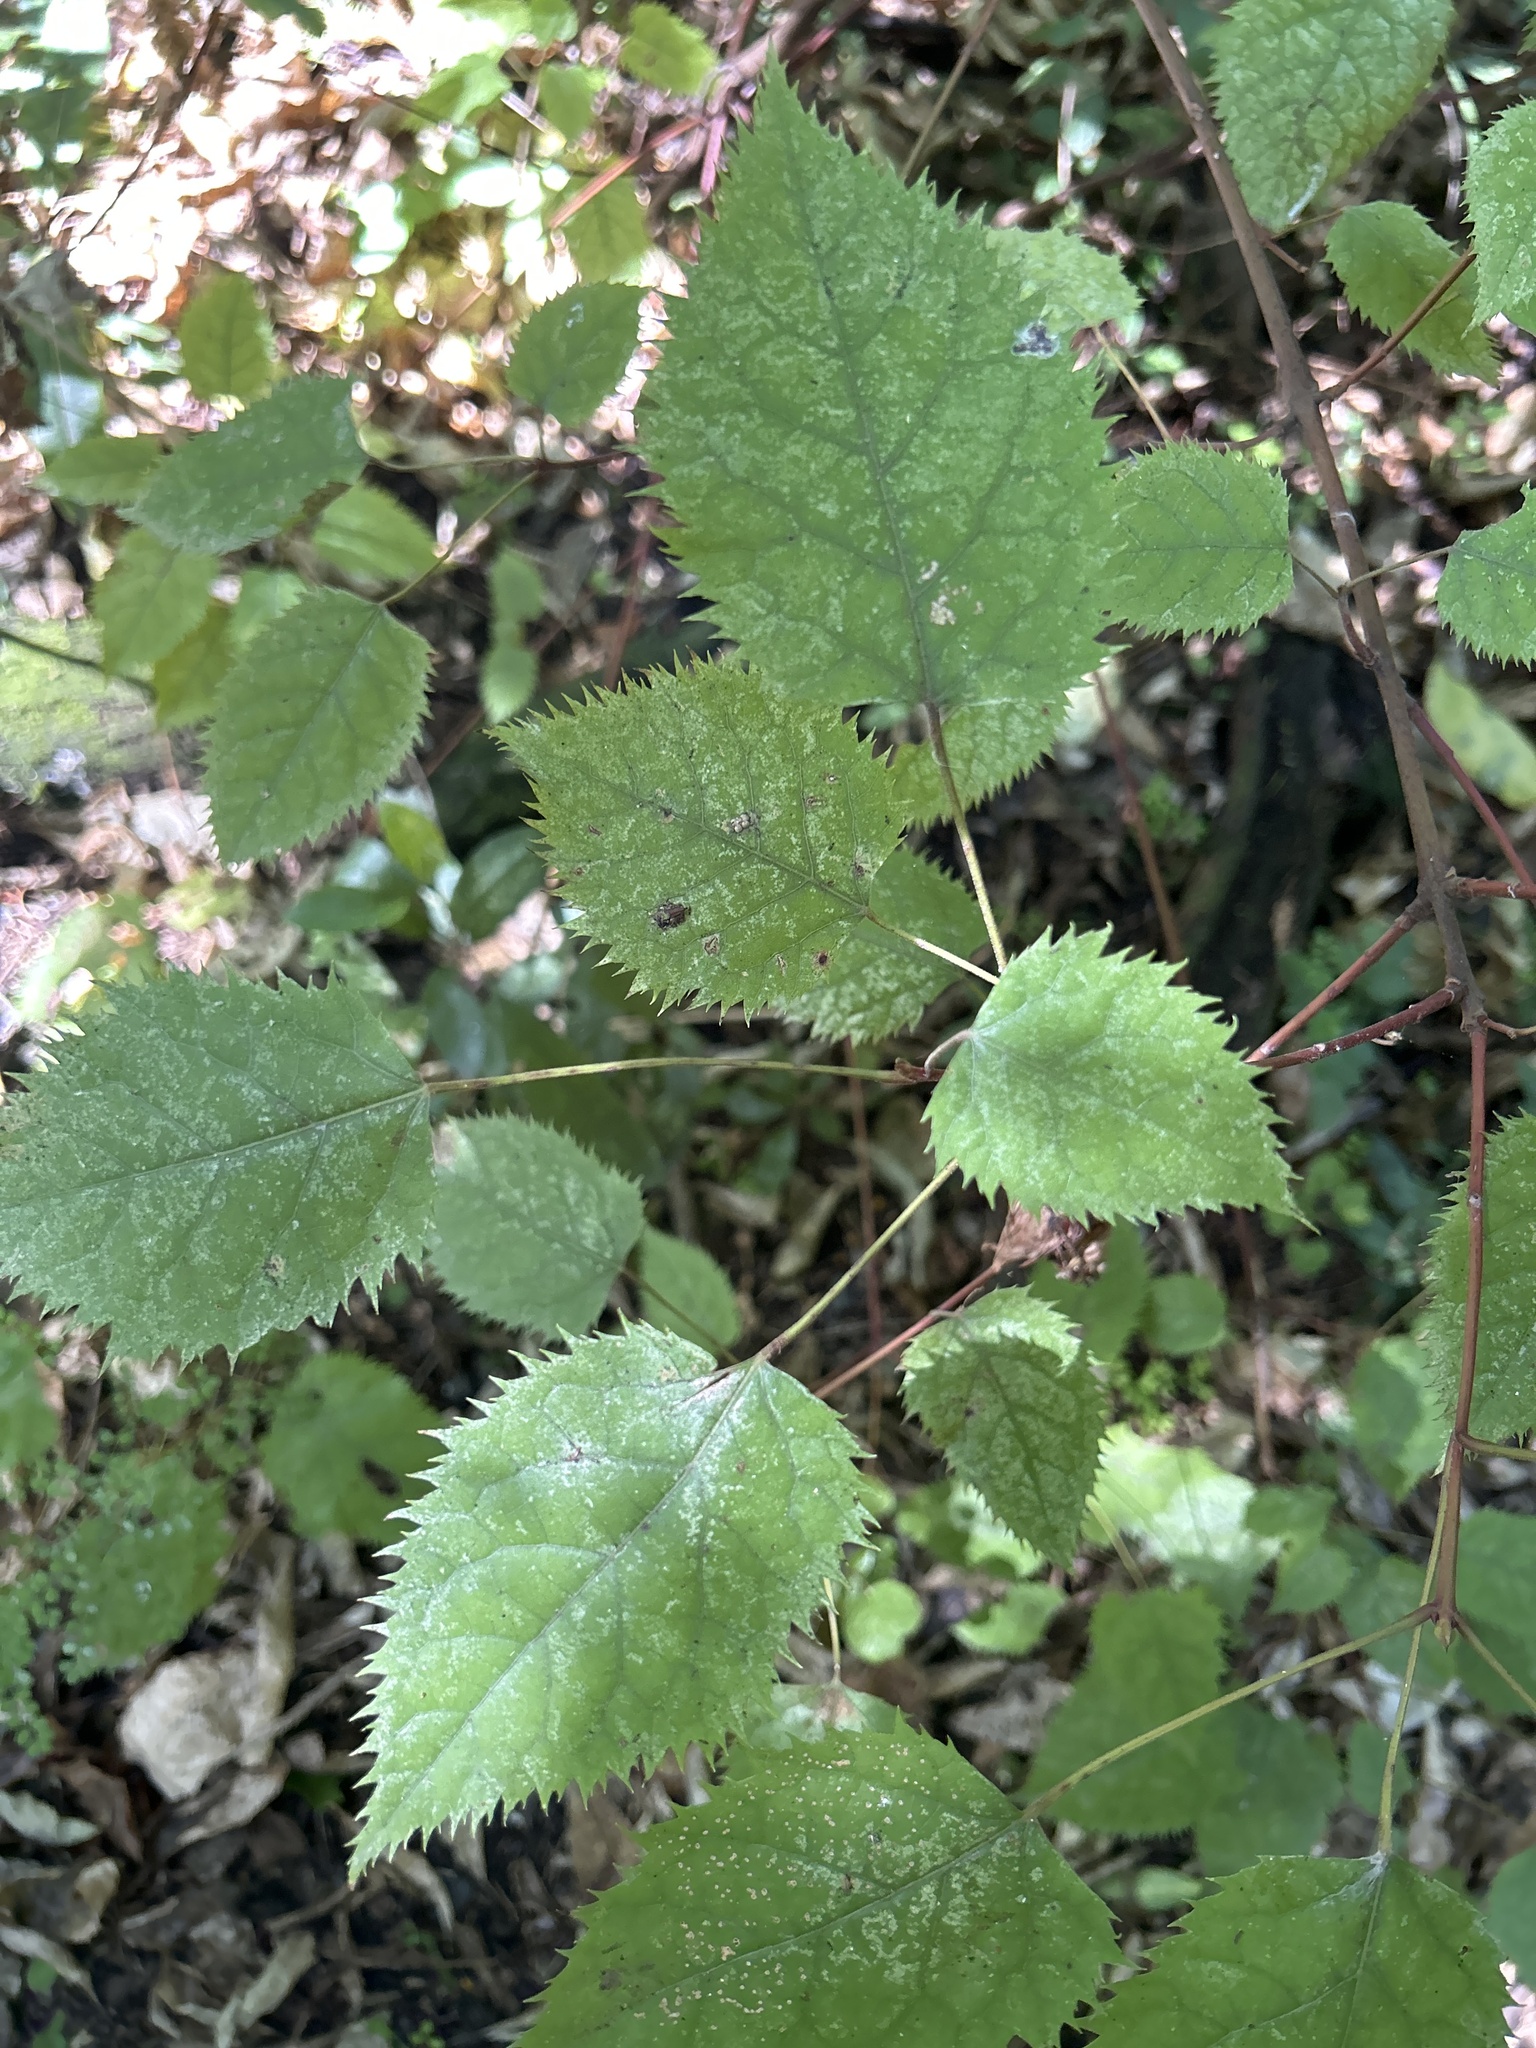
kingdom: Plantae
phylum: Tracheophyta
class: Magnoliopsida
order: Oxalidales
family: Elaeocarpaceae
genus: Aristotelia
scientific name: Aristotelia serrata
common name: New zealand wineberry
